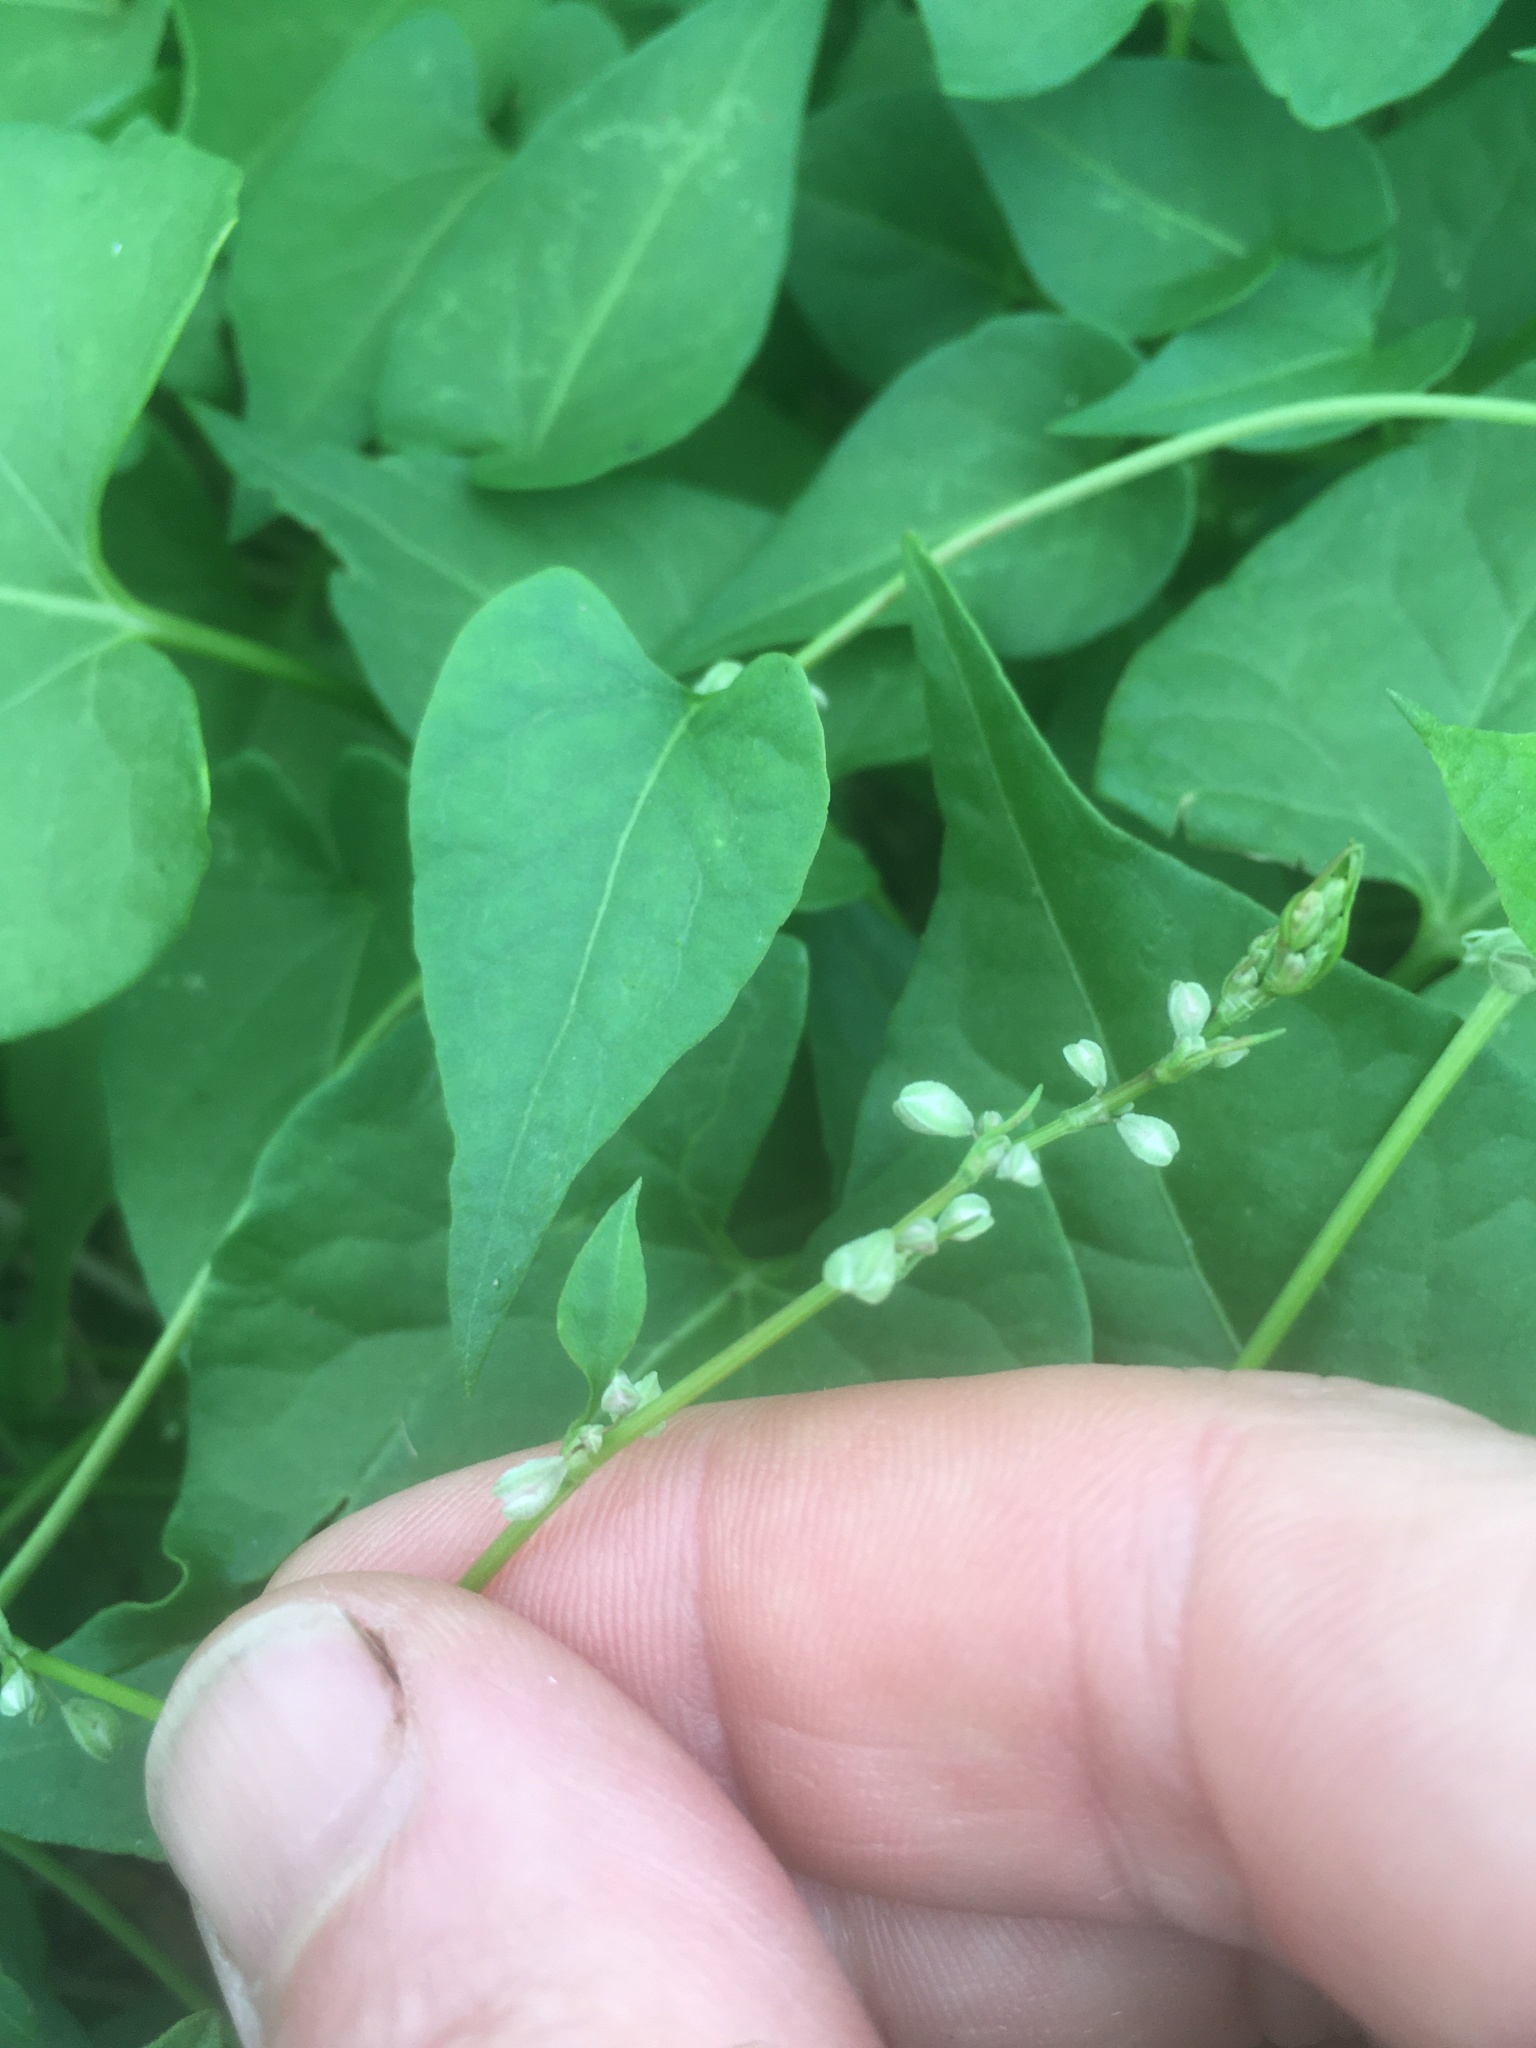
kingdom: Plantae
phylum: Tracheophyta
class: Magnoliopsida
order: Caryophyllales
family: Polygonaceae
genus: Fallopia
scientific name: Fallopia convolvulus
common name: Black bindweed
